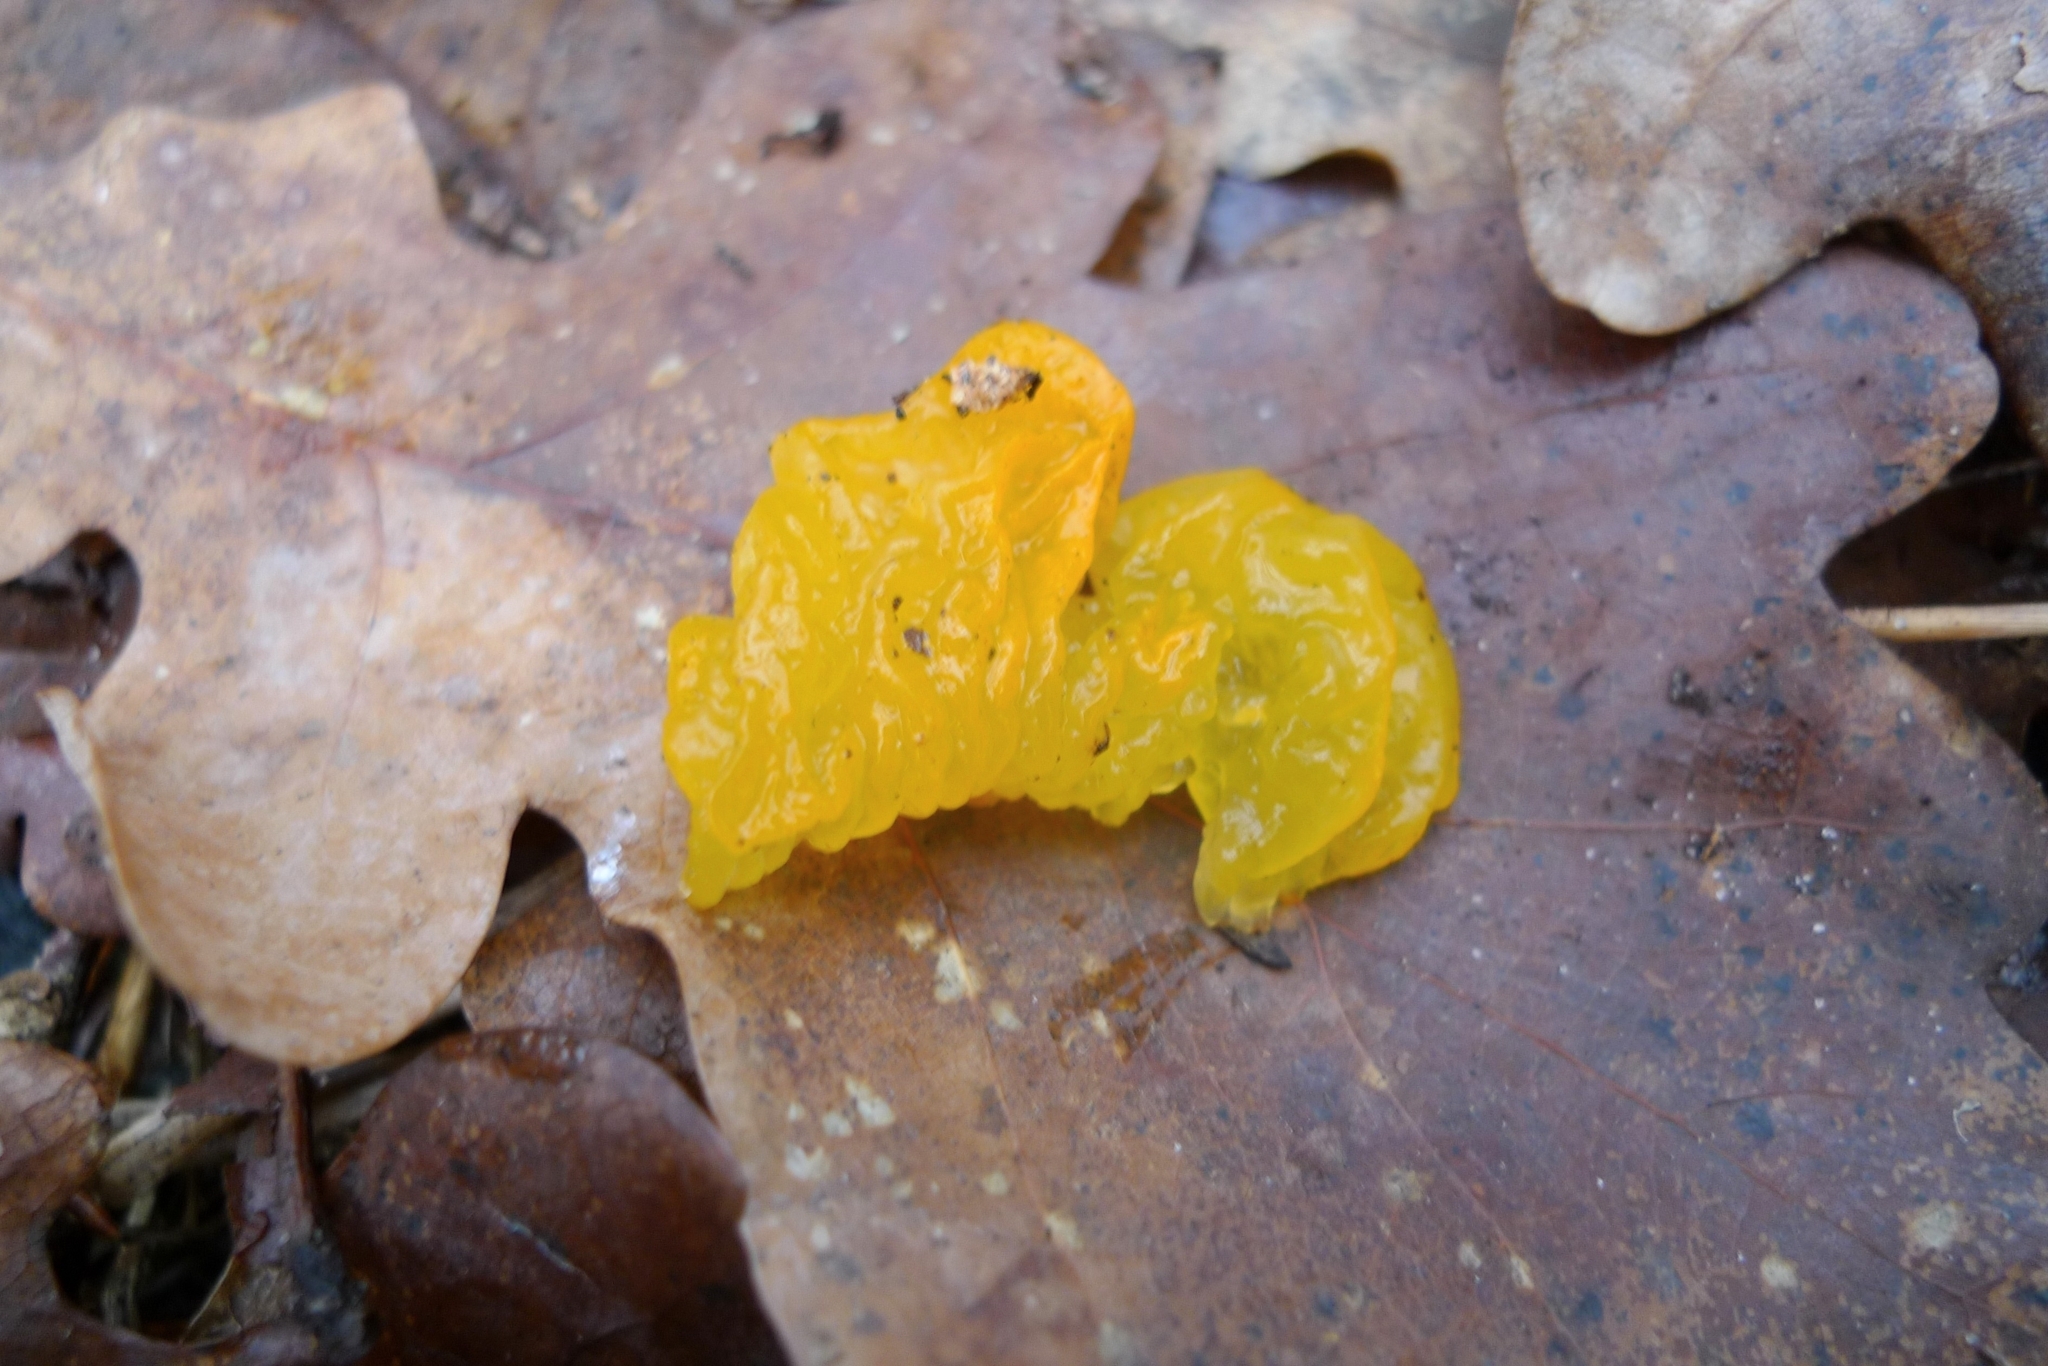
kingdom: Fungi
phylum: Basidiomycota
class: Tremellomycetes
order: Tremellales
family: Tremellaceae
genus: Tremella
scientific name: Tremella mesenterica
